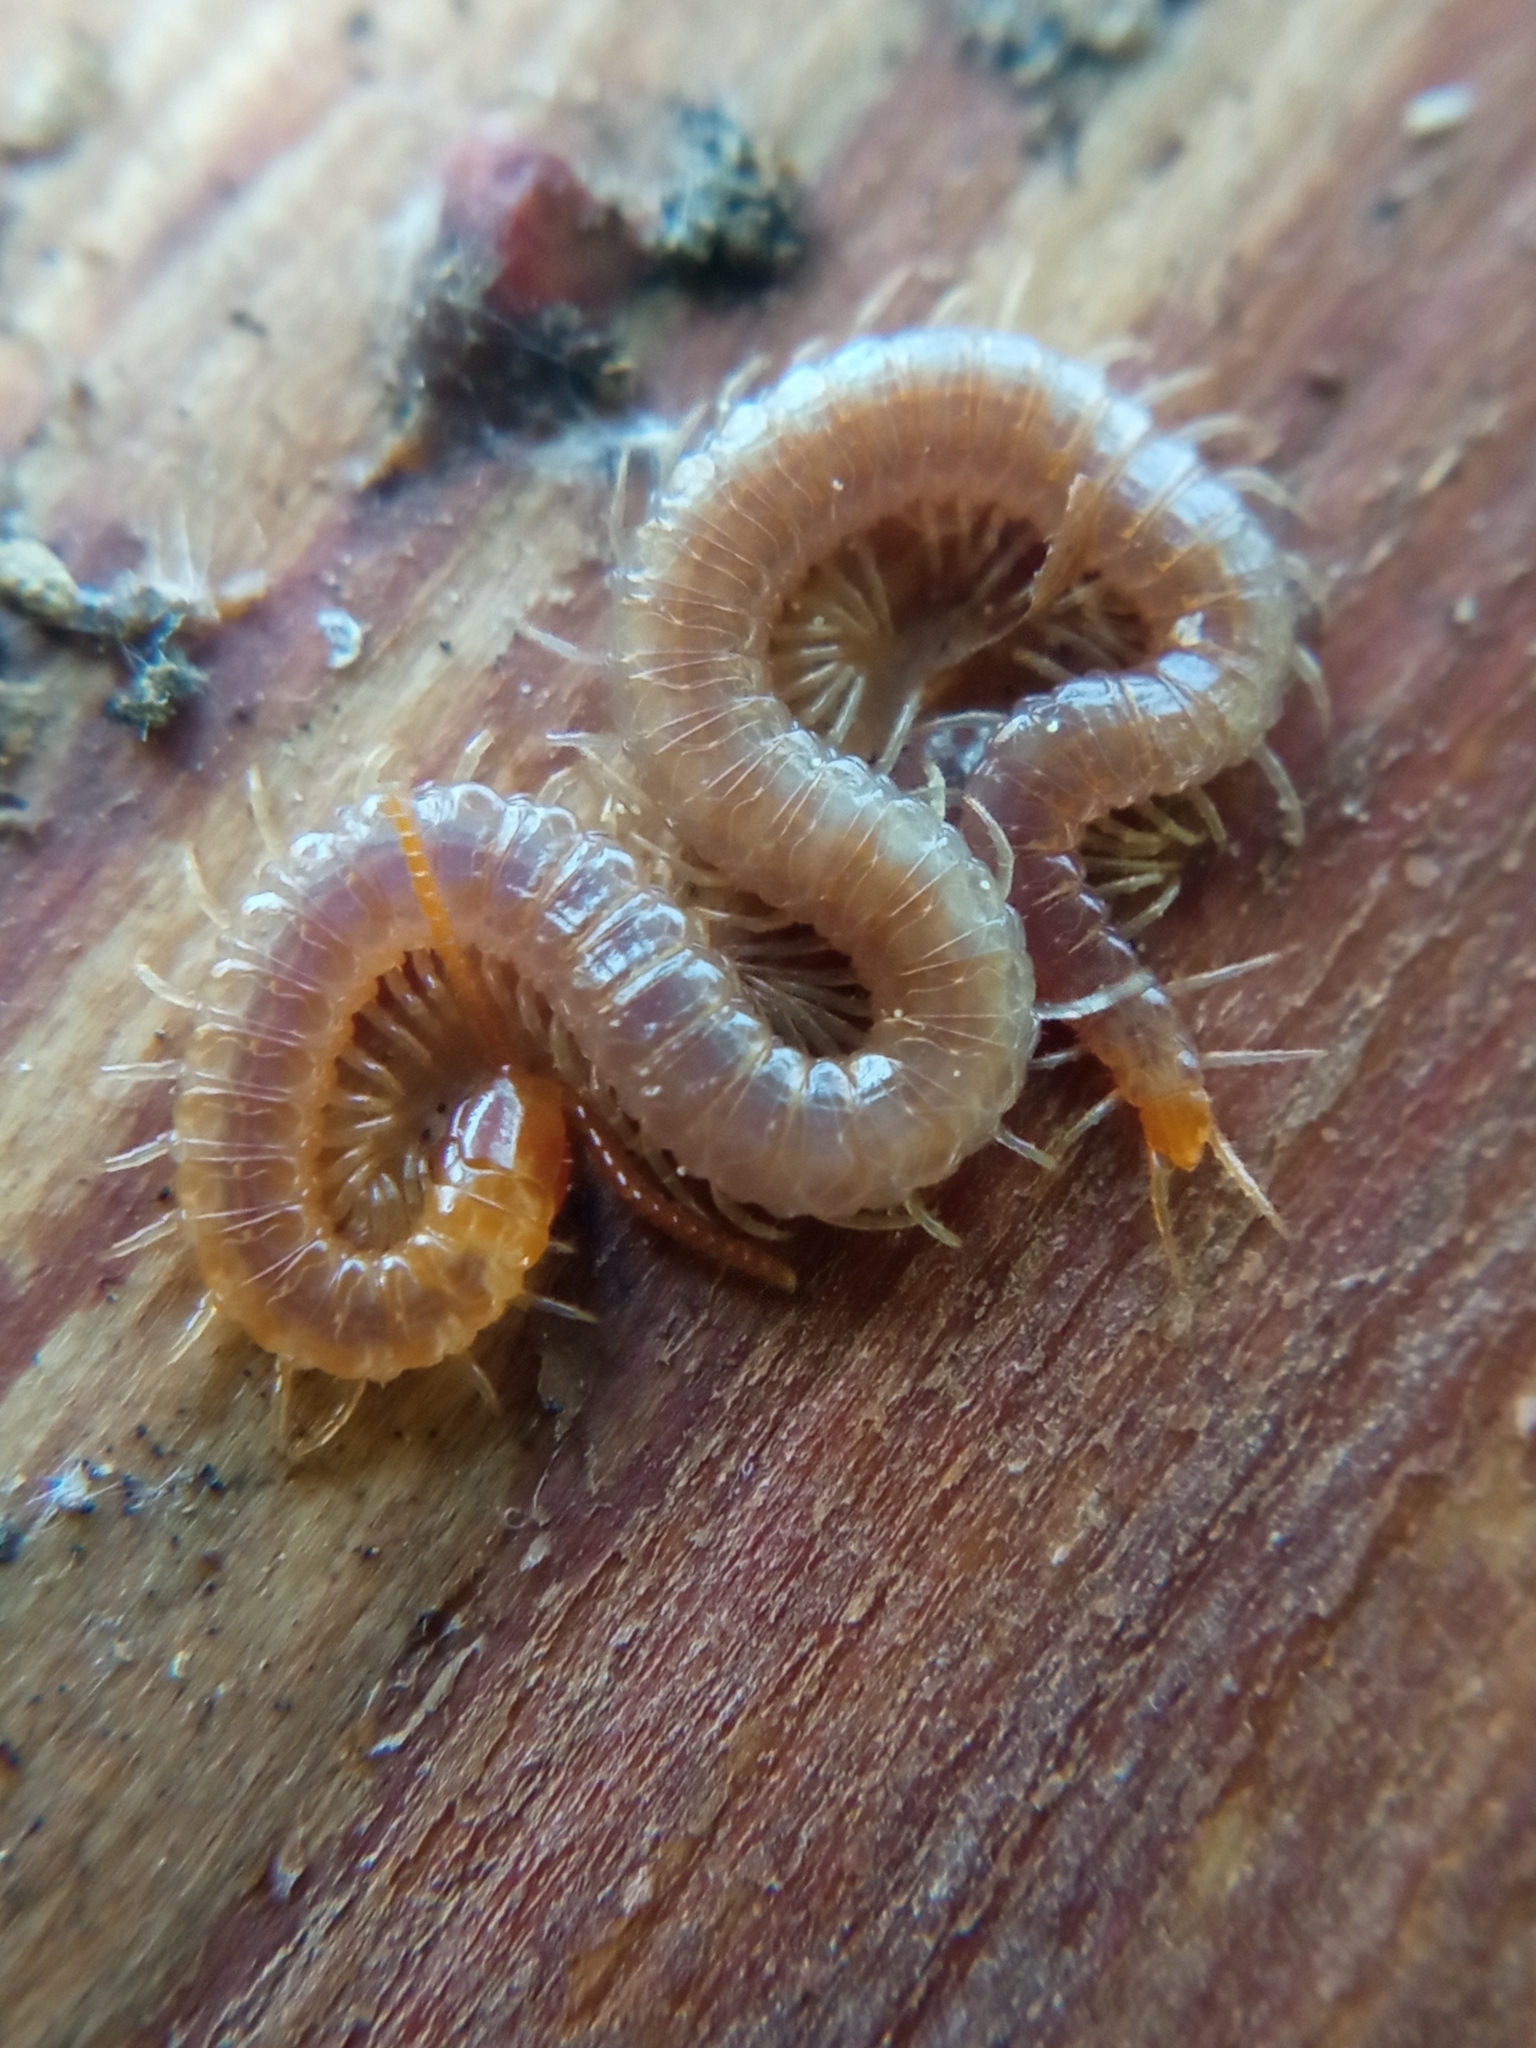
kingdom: Animalia
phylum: Arthropoda
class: Chilopoda
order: Geophilomorpha
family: Geophilidae
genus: Geophilus
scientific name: Geophilus carpophagus
